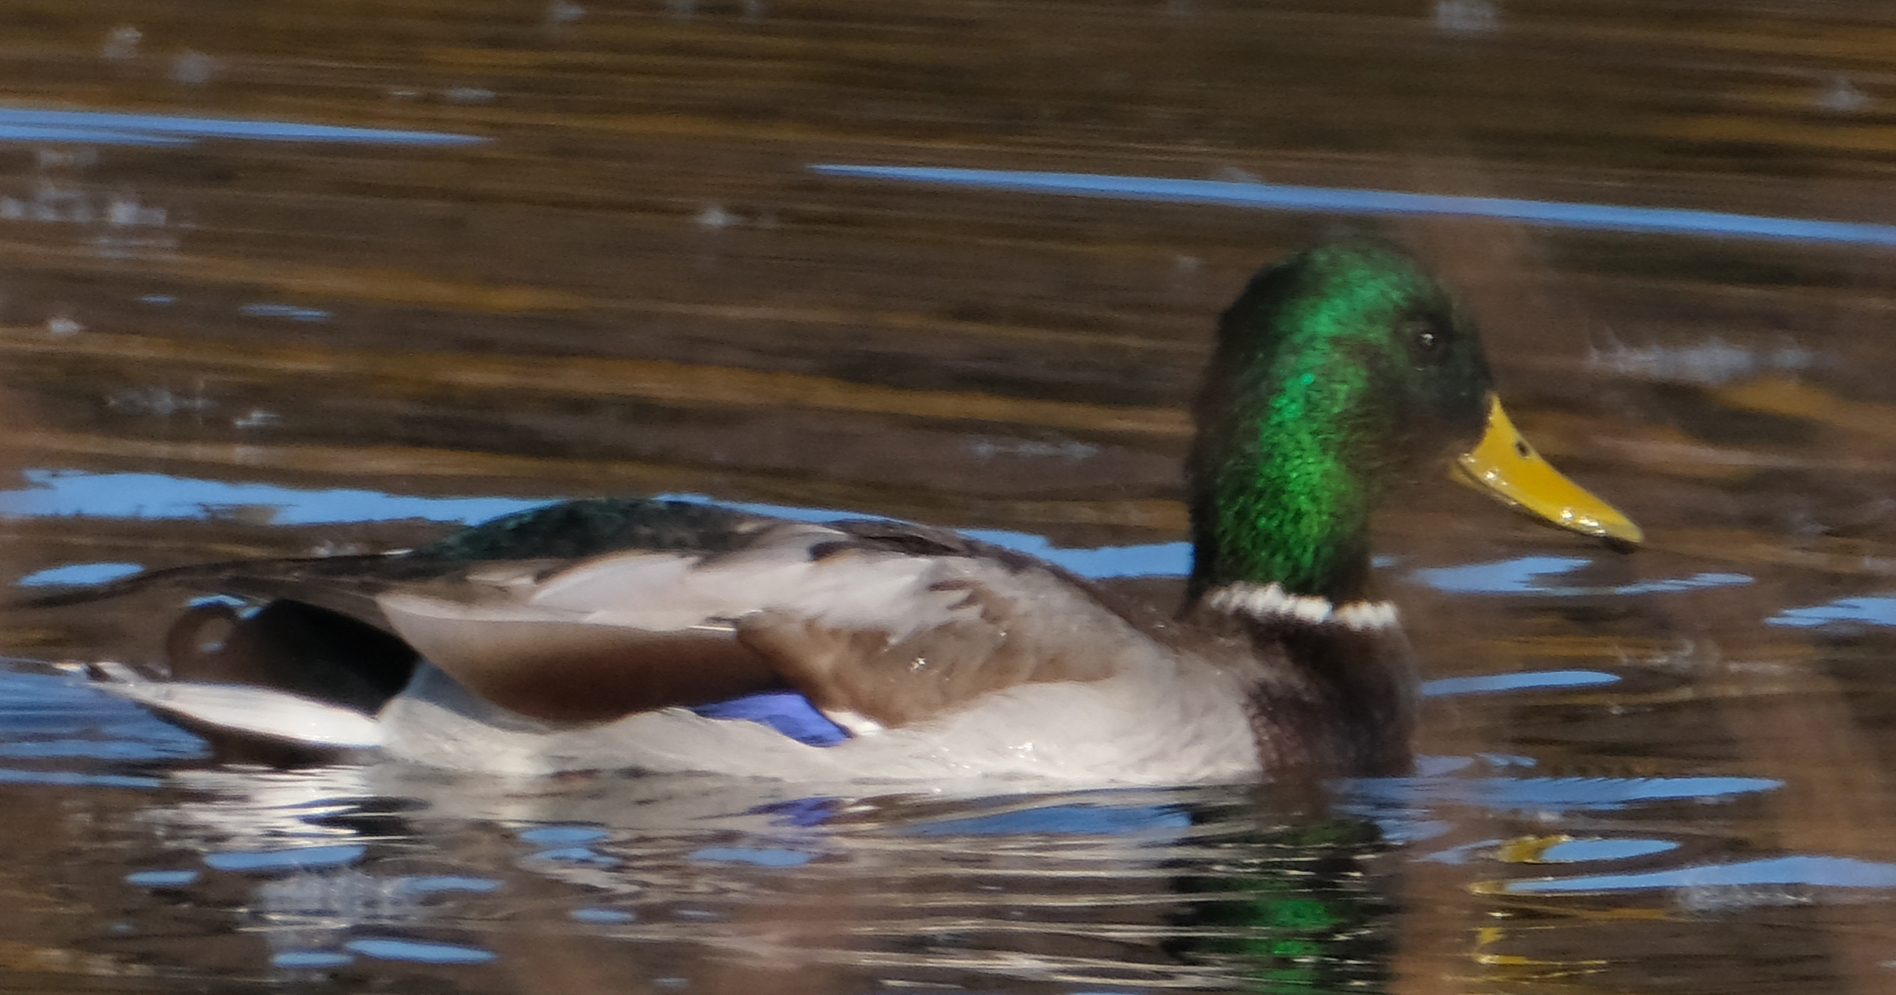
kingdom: Animalia
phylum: Chordata
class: Aves
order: Anseriformes
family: Anatidae
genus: Anas
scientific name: Anas platyrhynchos
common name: Mallard
